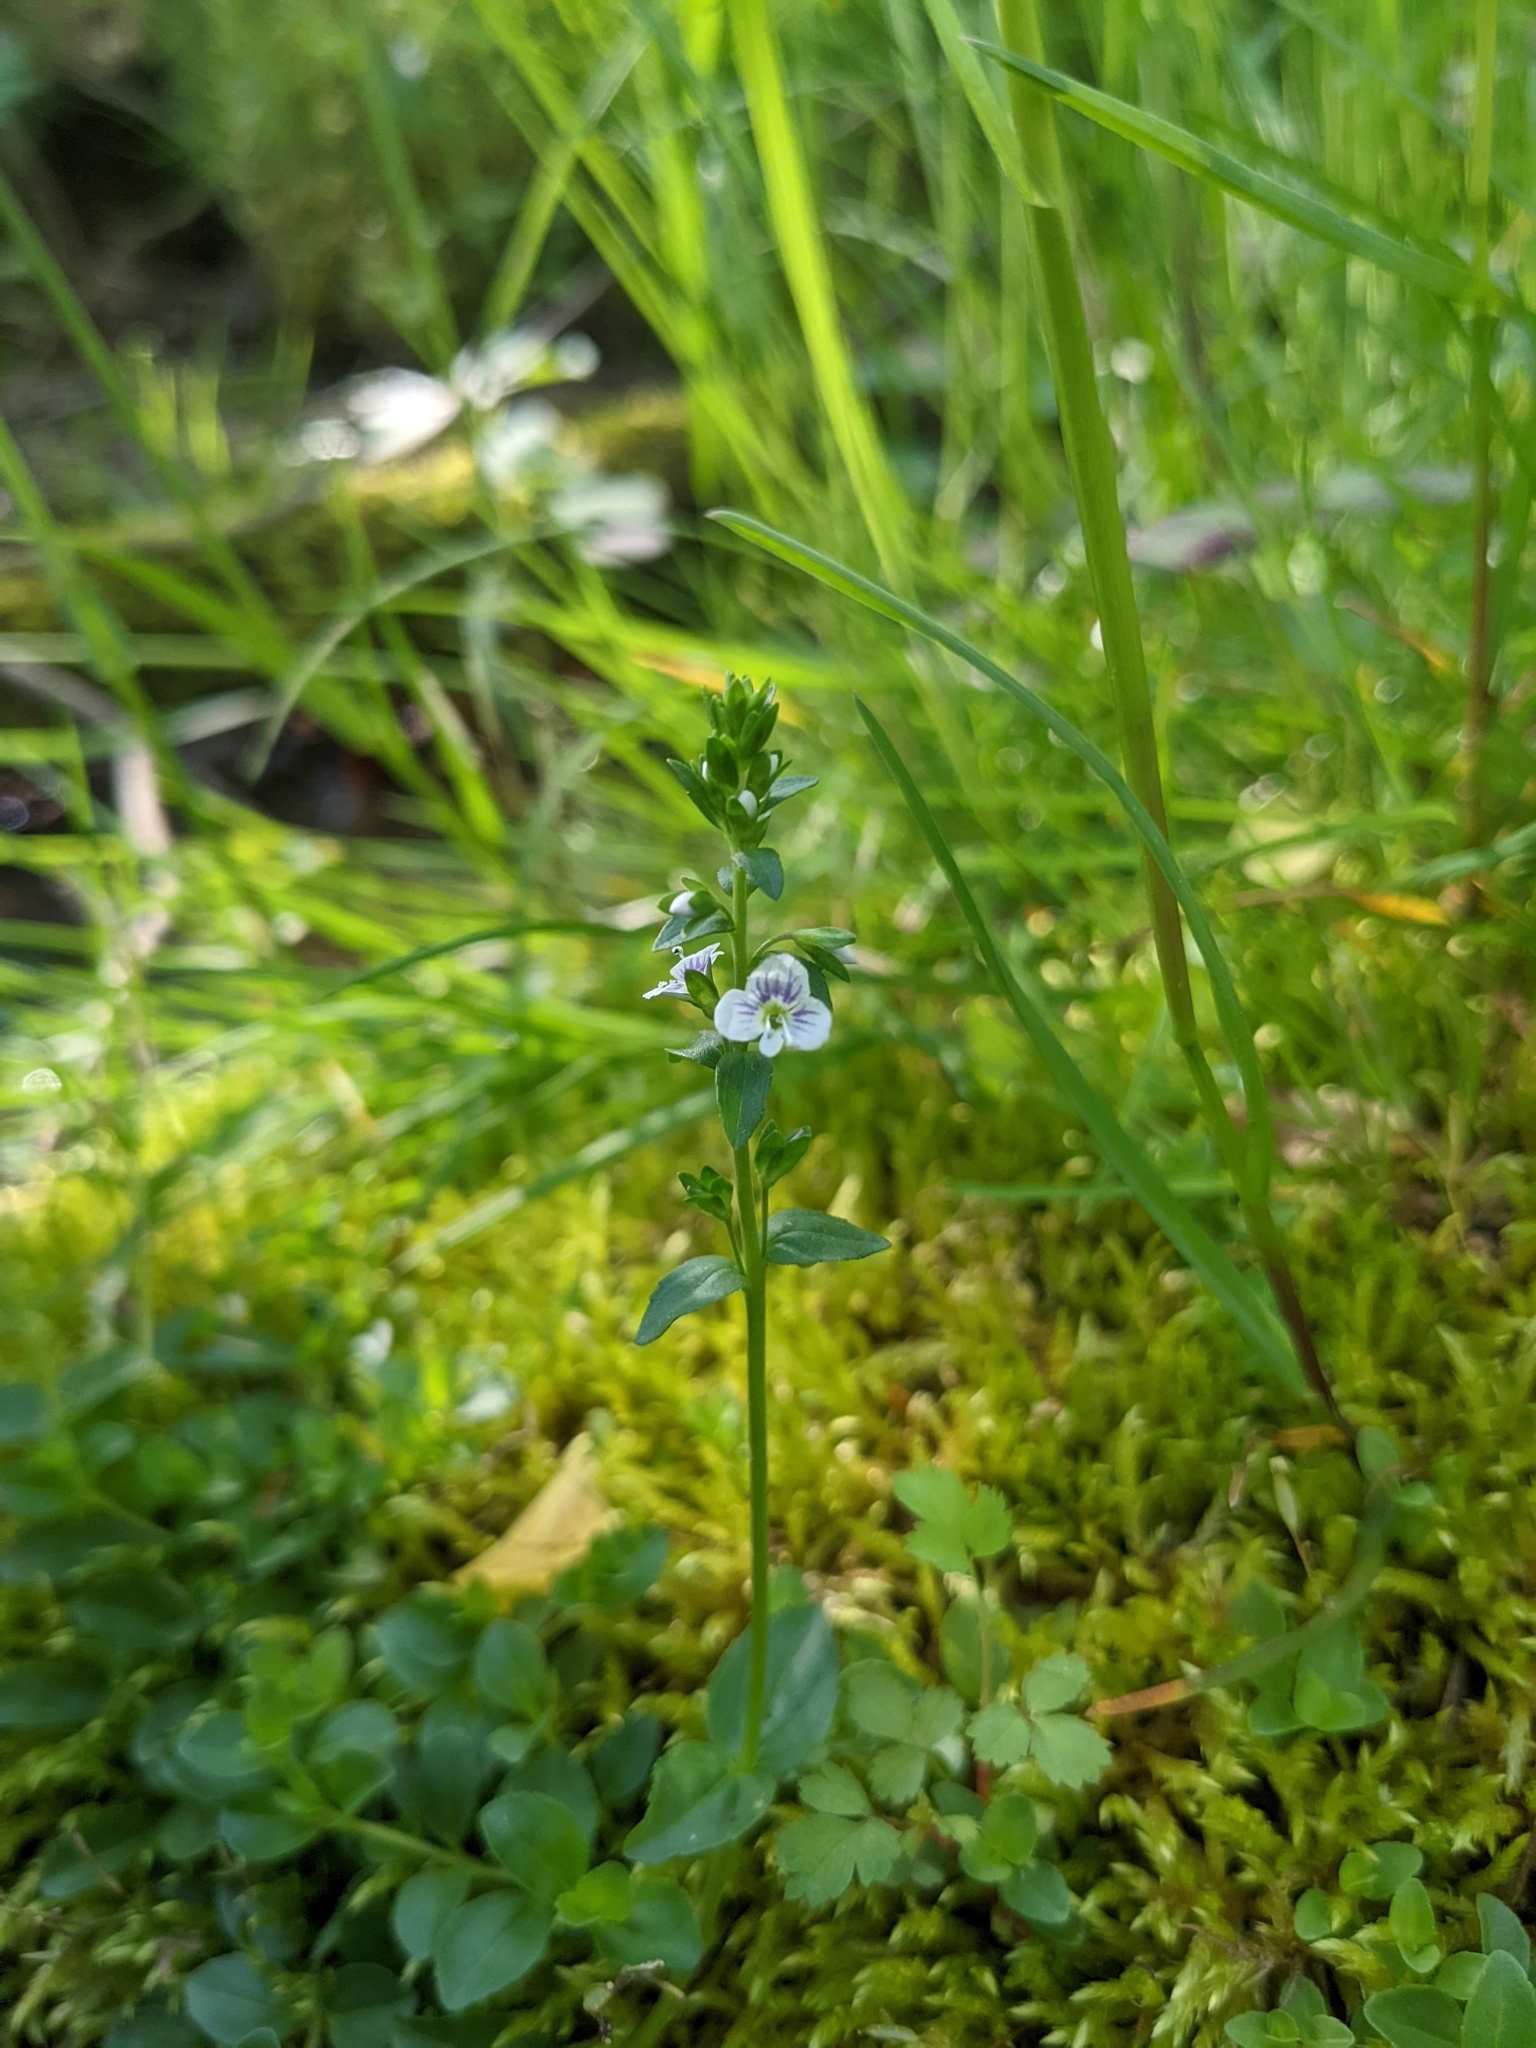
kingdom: Plantae
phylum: Tracheophyta
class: Magnoliopsida
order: Lamiales
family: Plantaginaceae
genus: Veronica
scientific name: Veronica serpyllifolia
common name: Thyme-leaved speedwell
